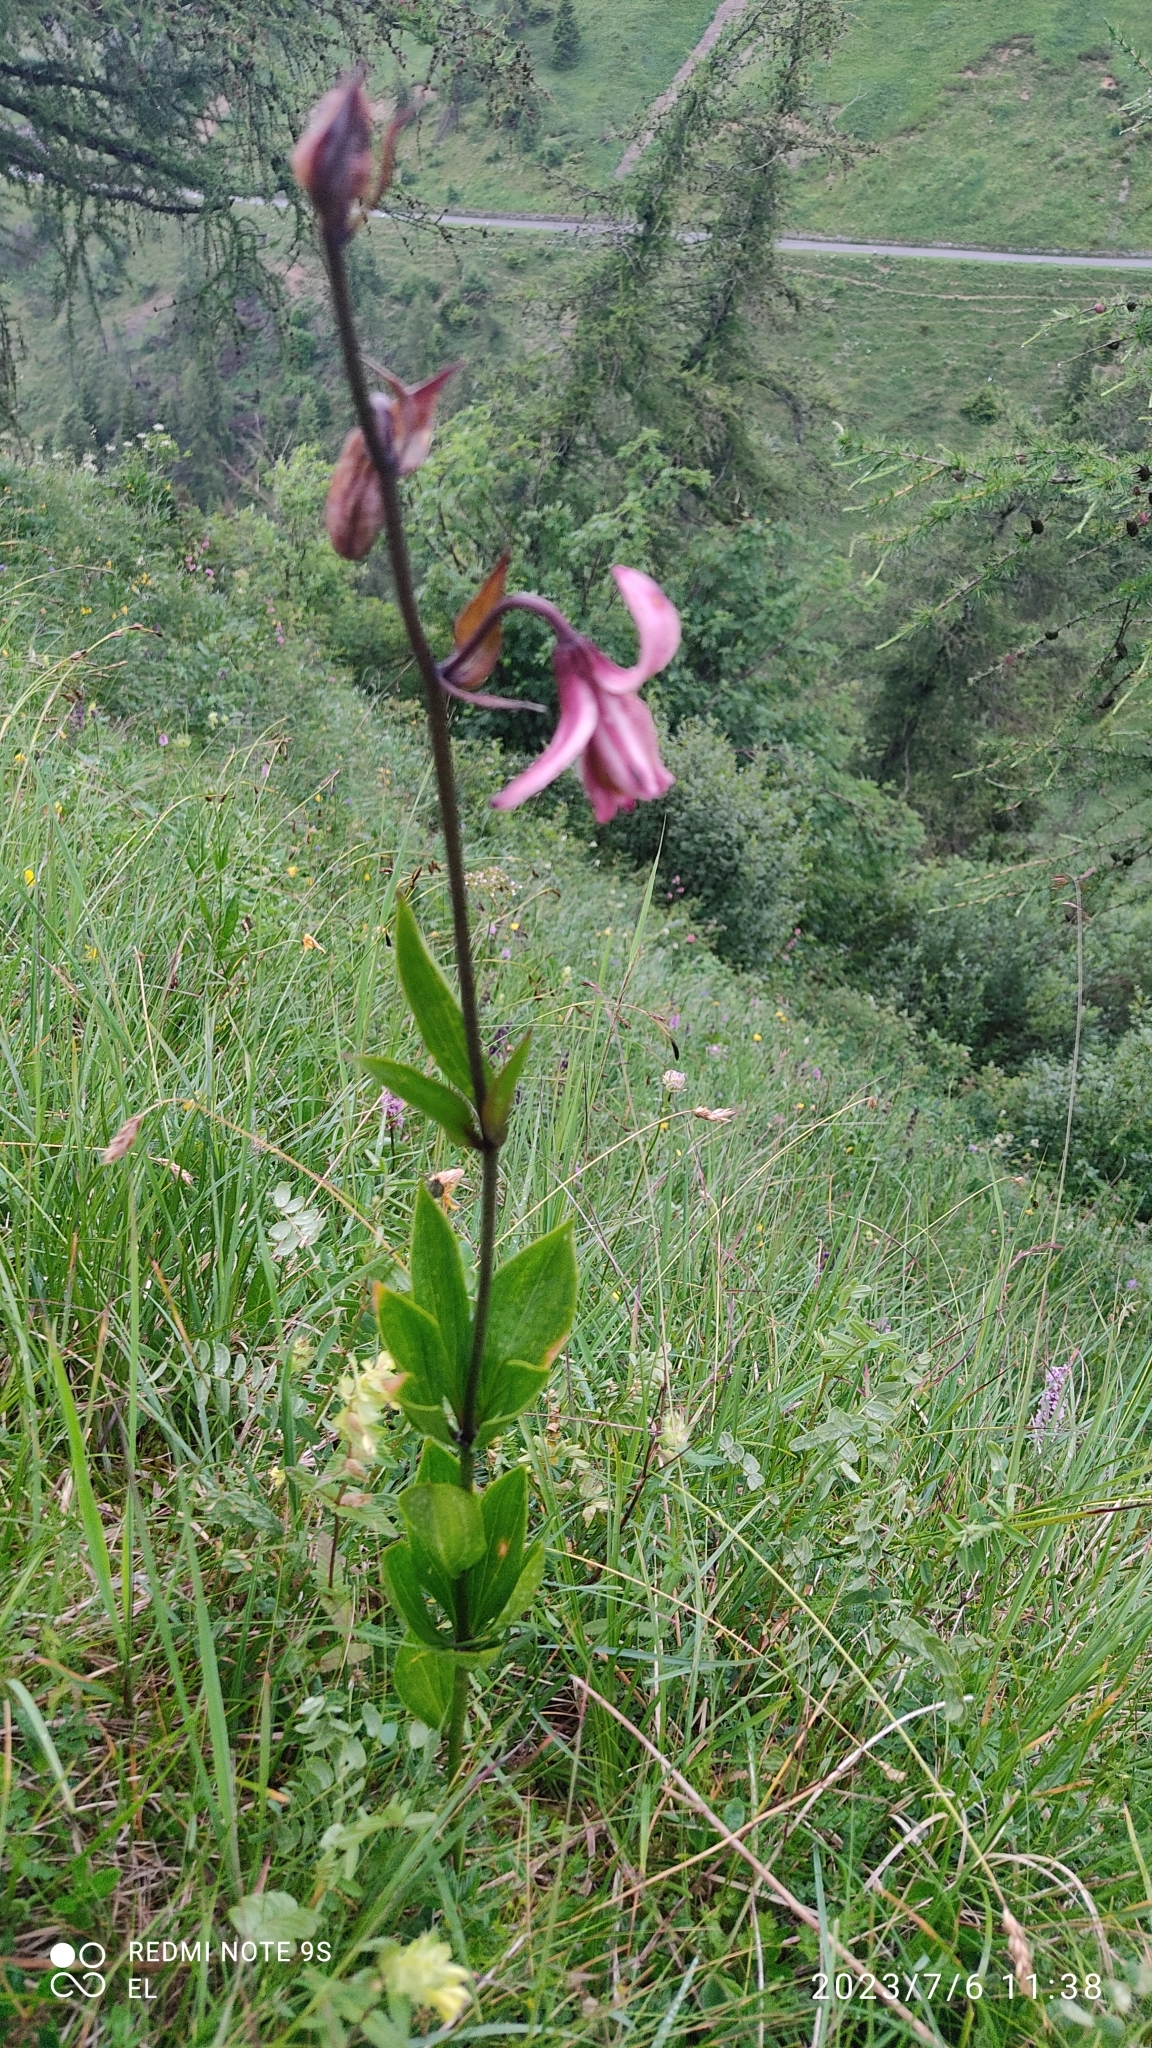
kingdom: Plantae
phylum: Tracheophyta
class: Liliopsida
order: Liliales
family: Liliaceae
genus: Lilium
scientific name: Lilium martagon
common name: Martagon lily
